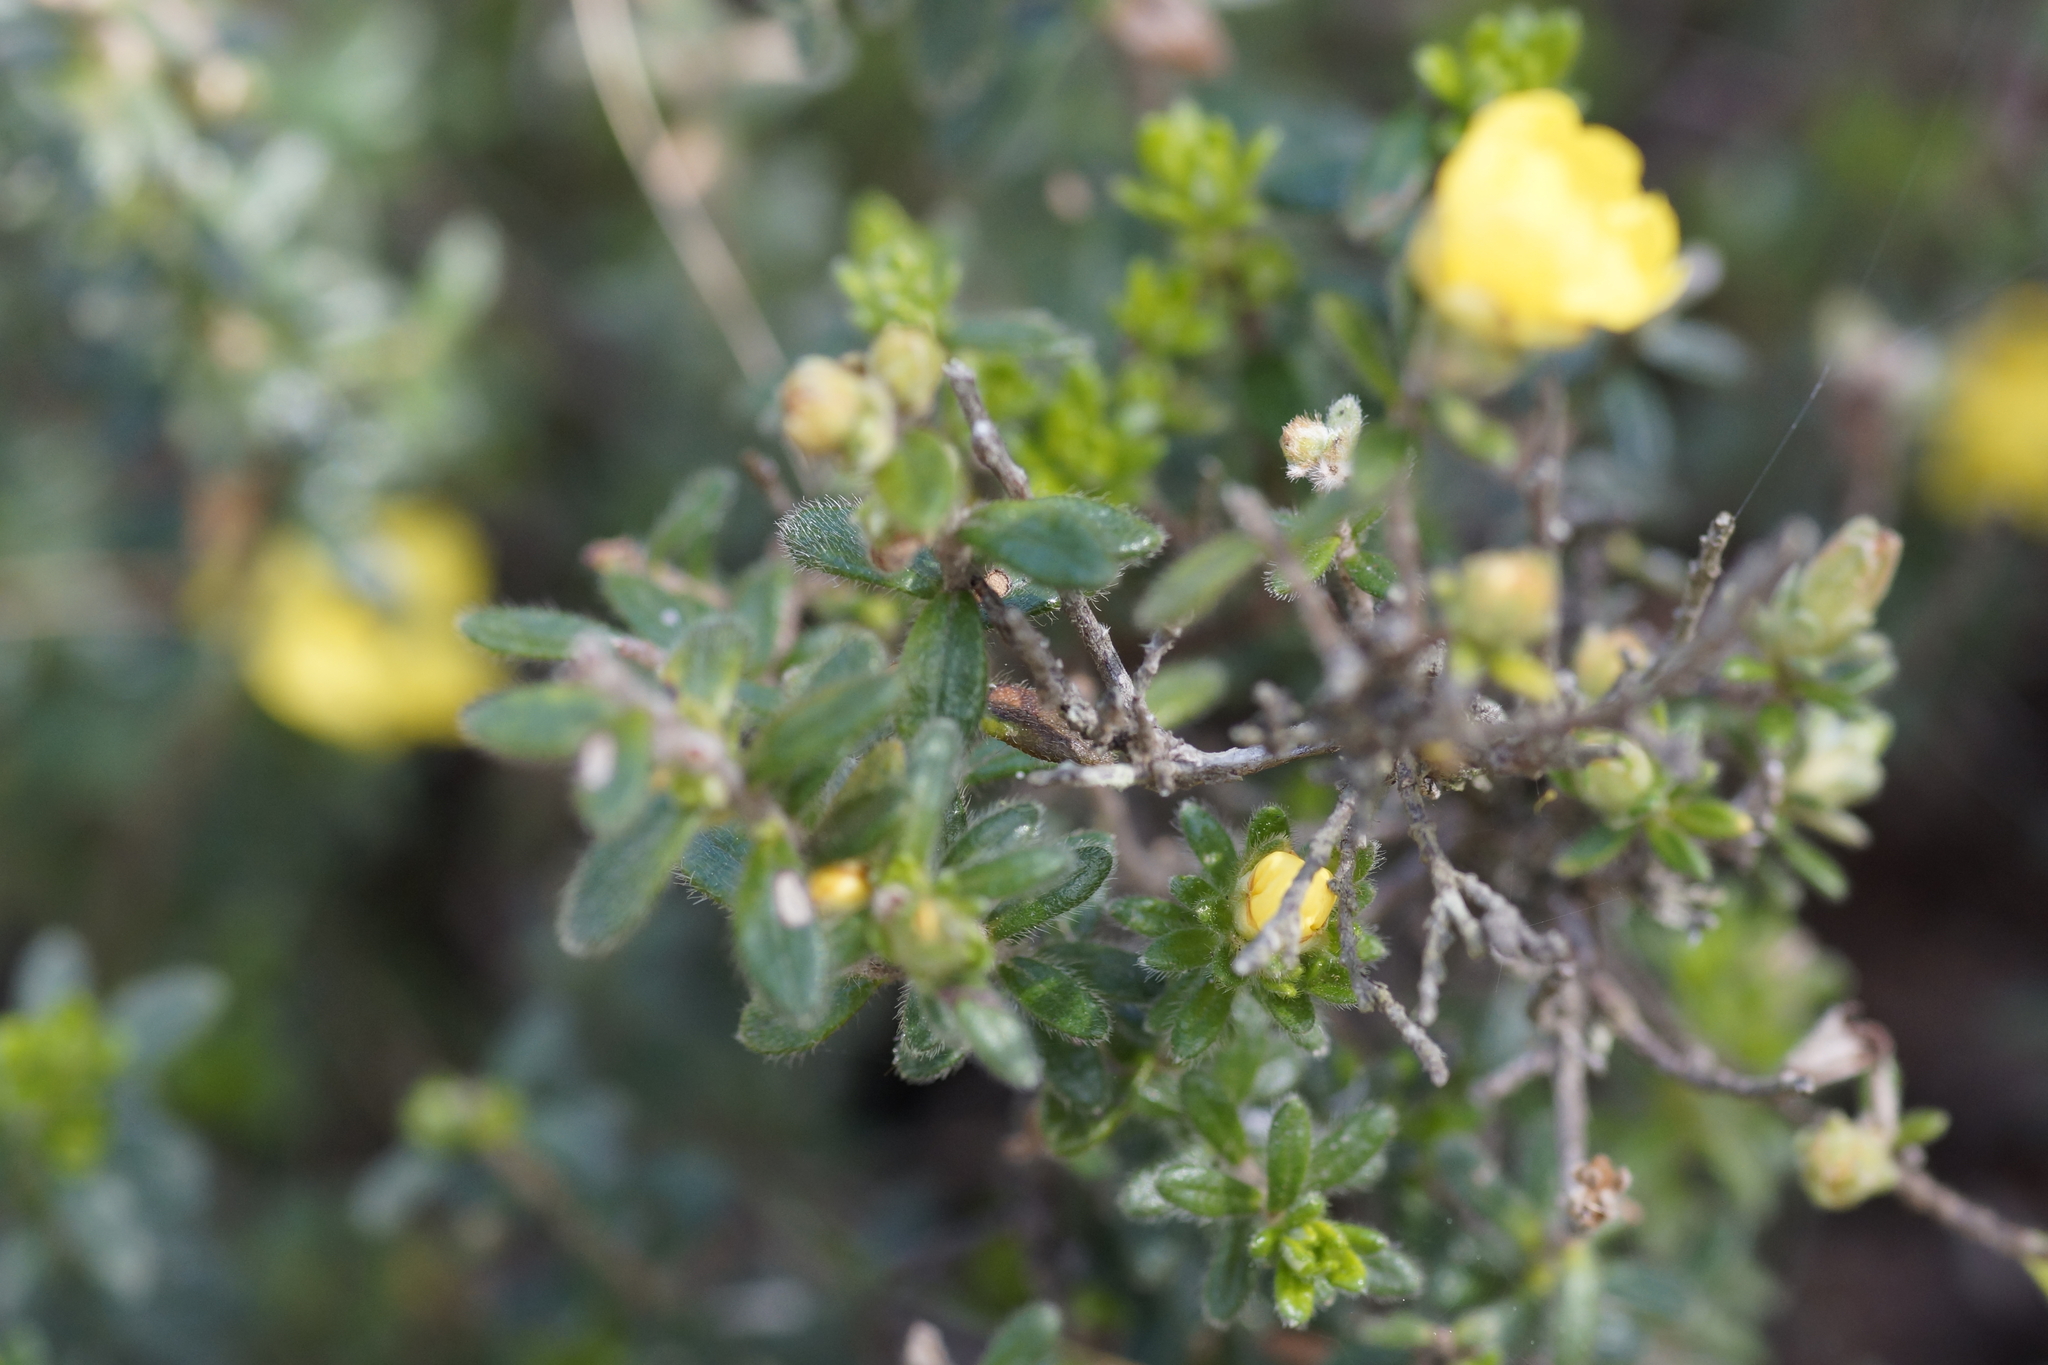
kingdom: Plantae
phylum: Tracheophyta
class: Magnoliopsida
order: Dilleniales
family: Dilleniaceae
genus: Hibbertia
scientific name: Hibbertia sericea
